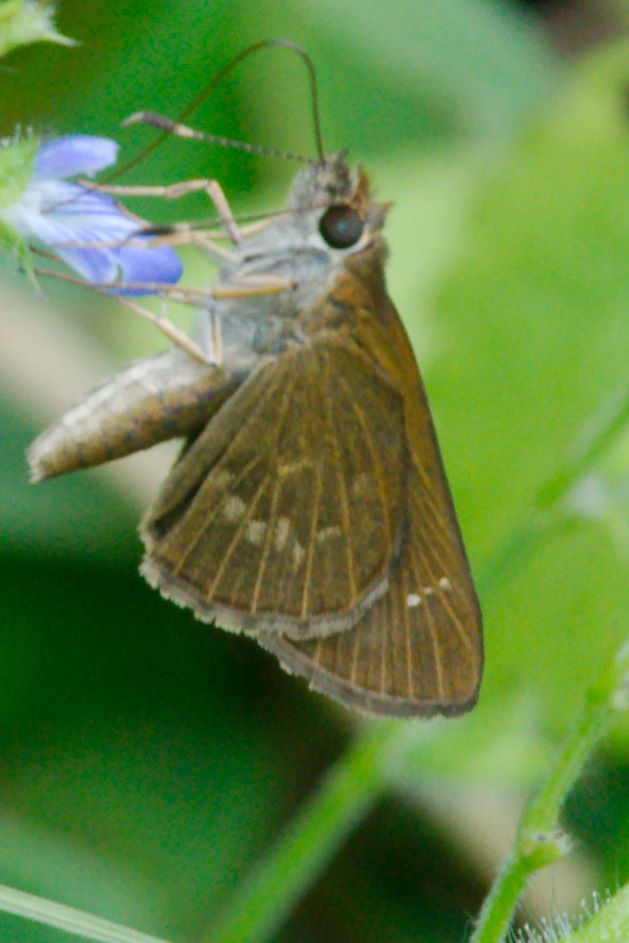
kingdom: Animalia
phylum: Arthropoda
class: Insecta
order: Lepidoptera
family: Hesperiidae
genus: Cymaenes
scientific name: Cymaenes tripunctus
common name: Dingy dotted skipper
